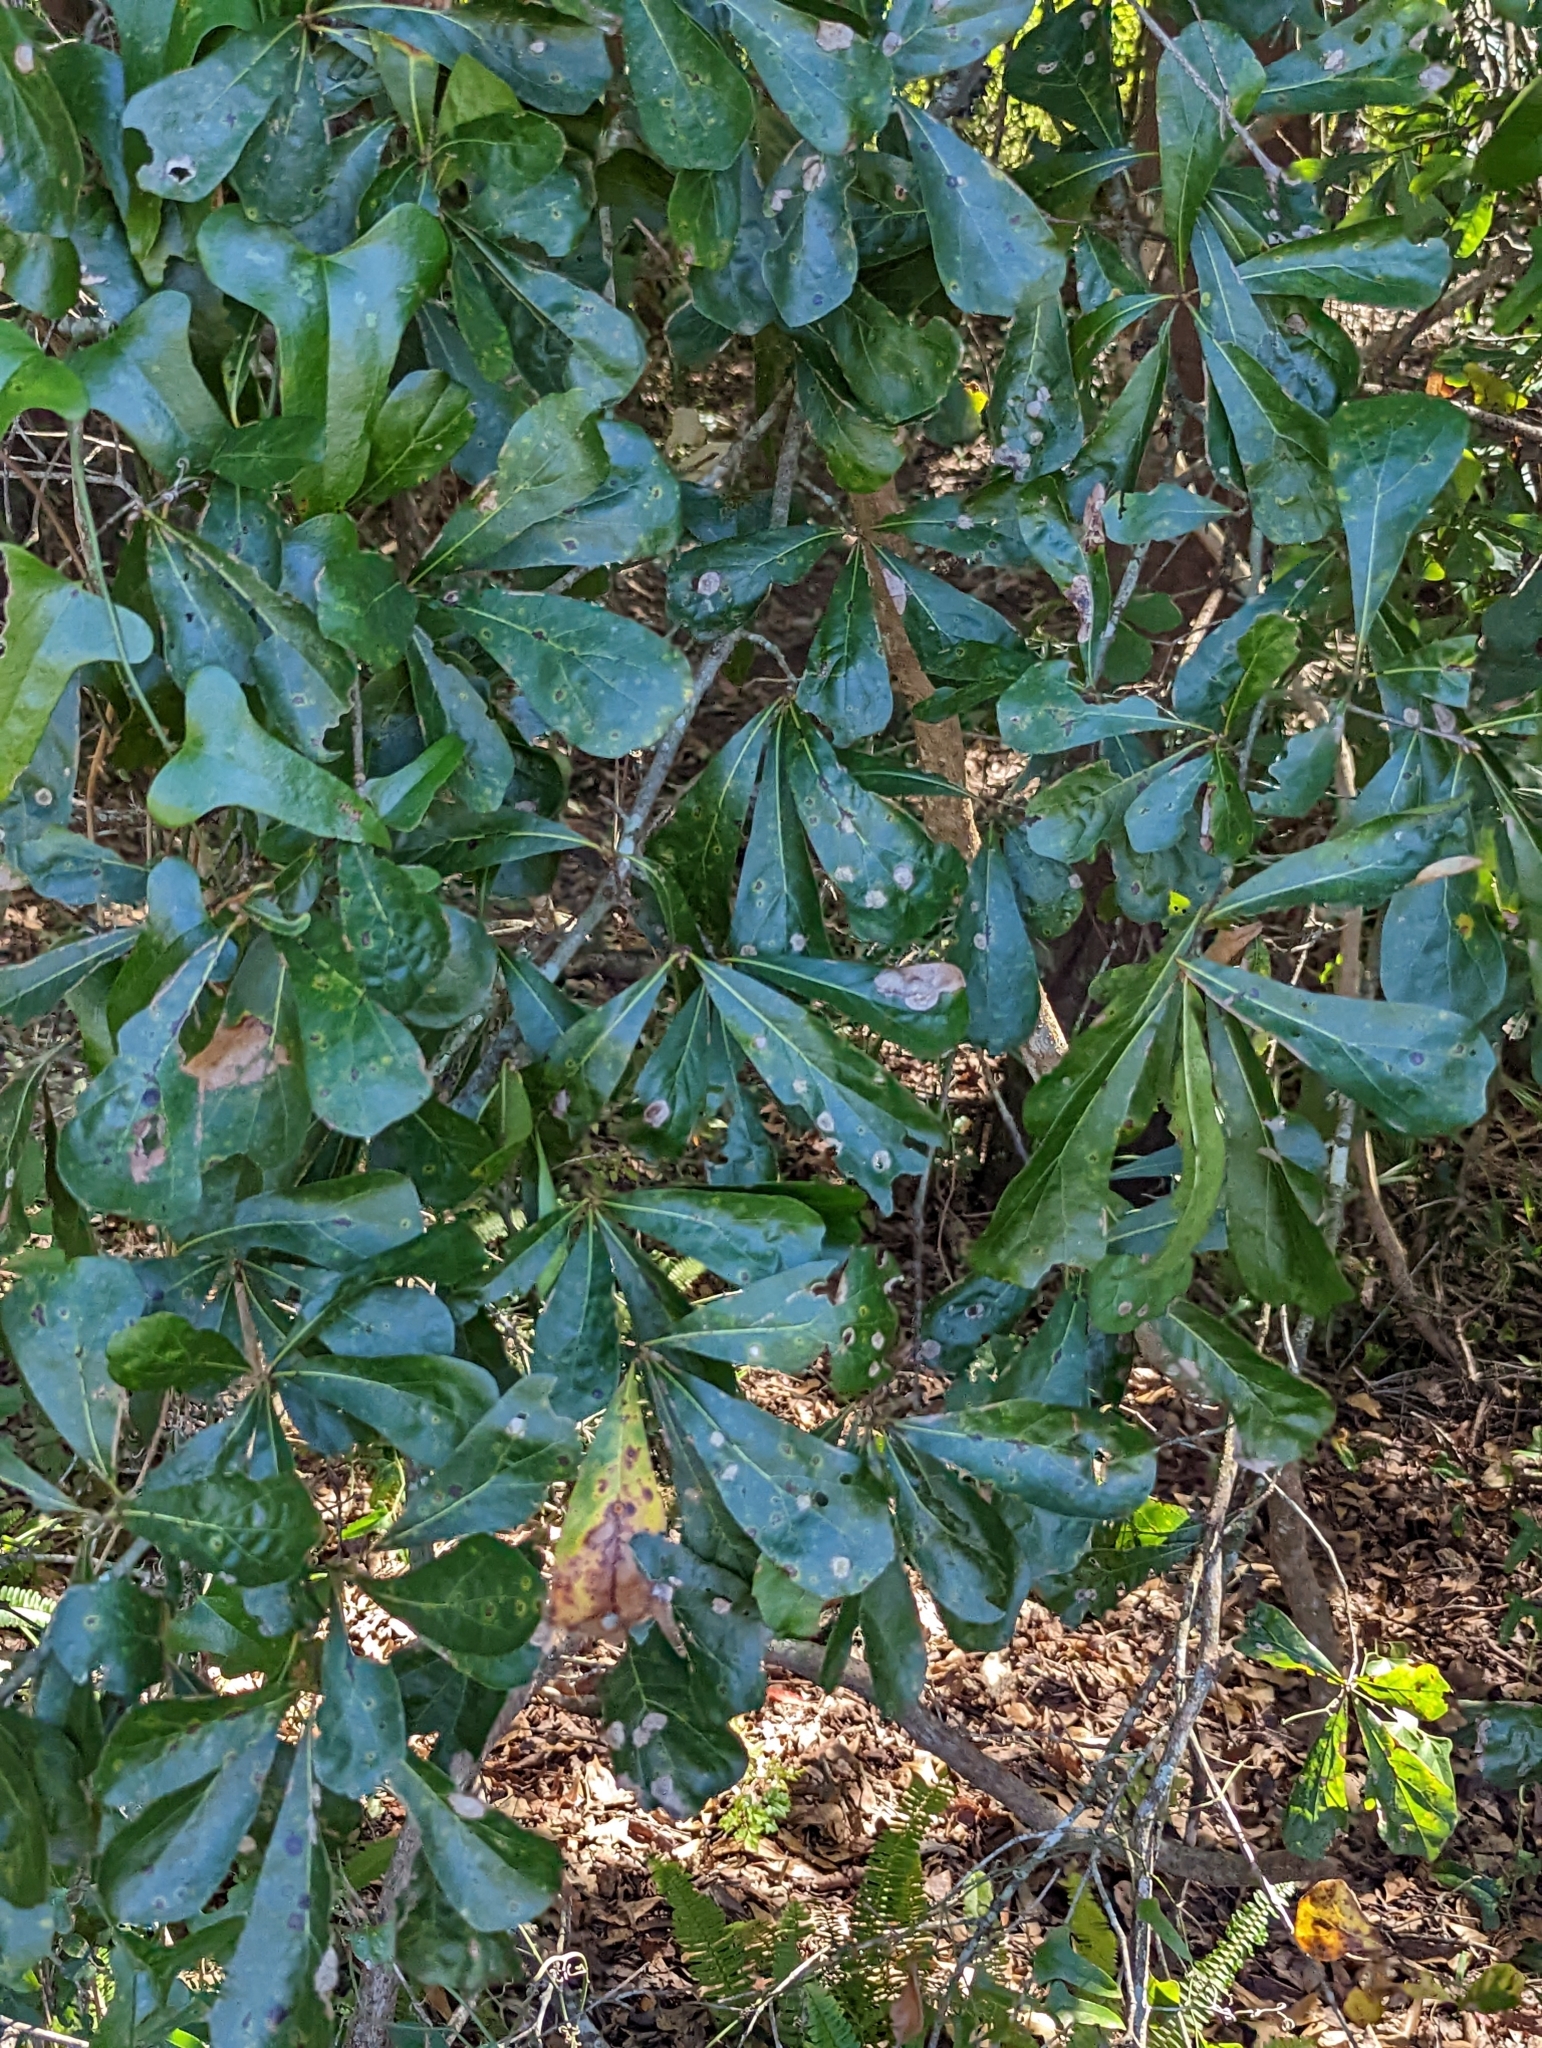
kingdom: Fungi
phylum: Ascomycota
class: Taphrinomycetes
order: Taphrinales
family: Taphrinaceae
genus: Taphrina
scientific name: Taphrina caerulescens
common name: Oak leaf blister
